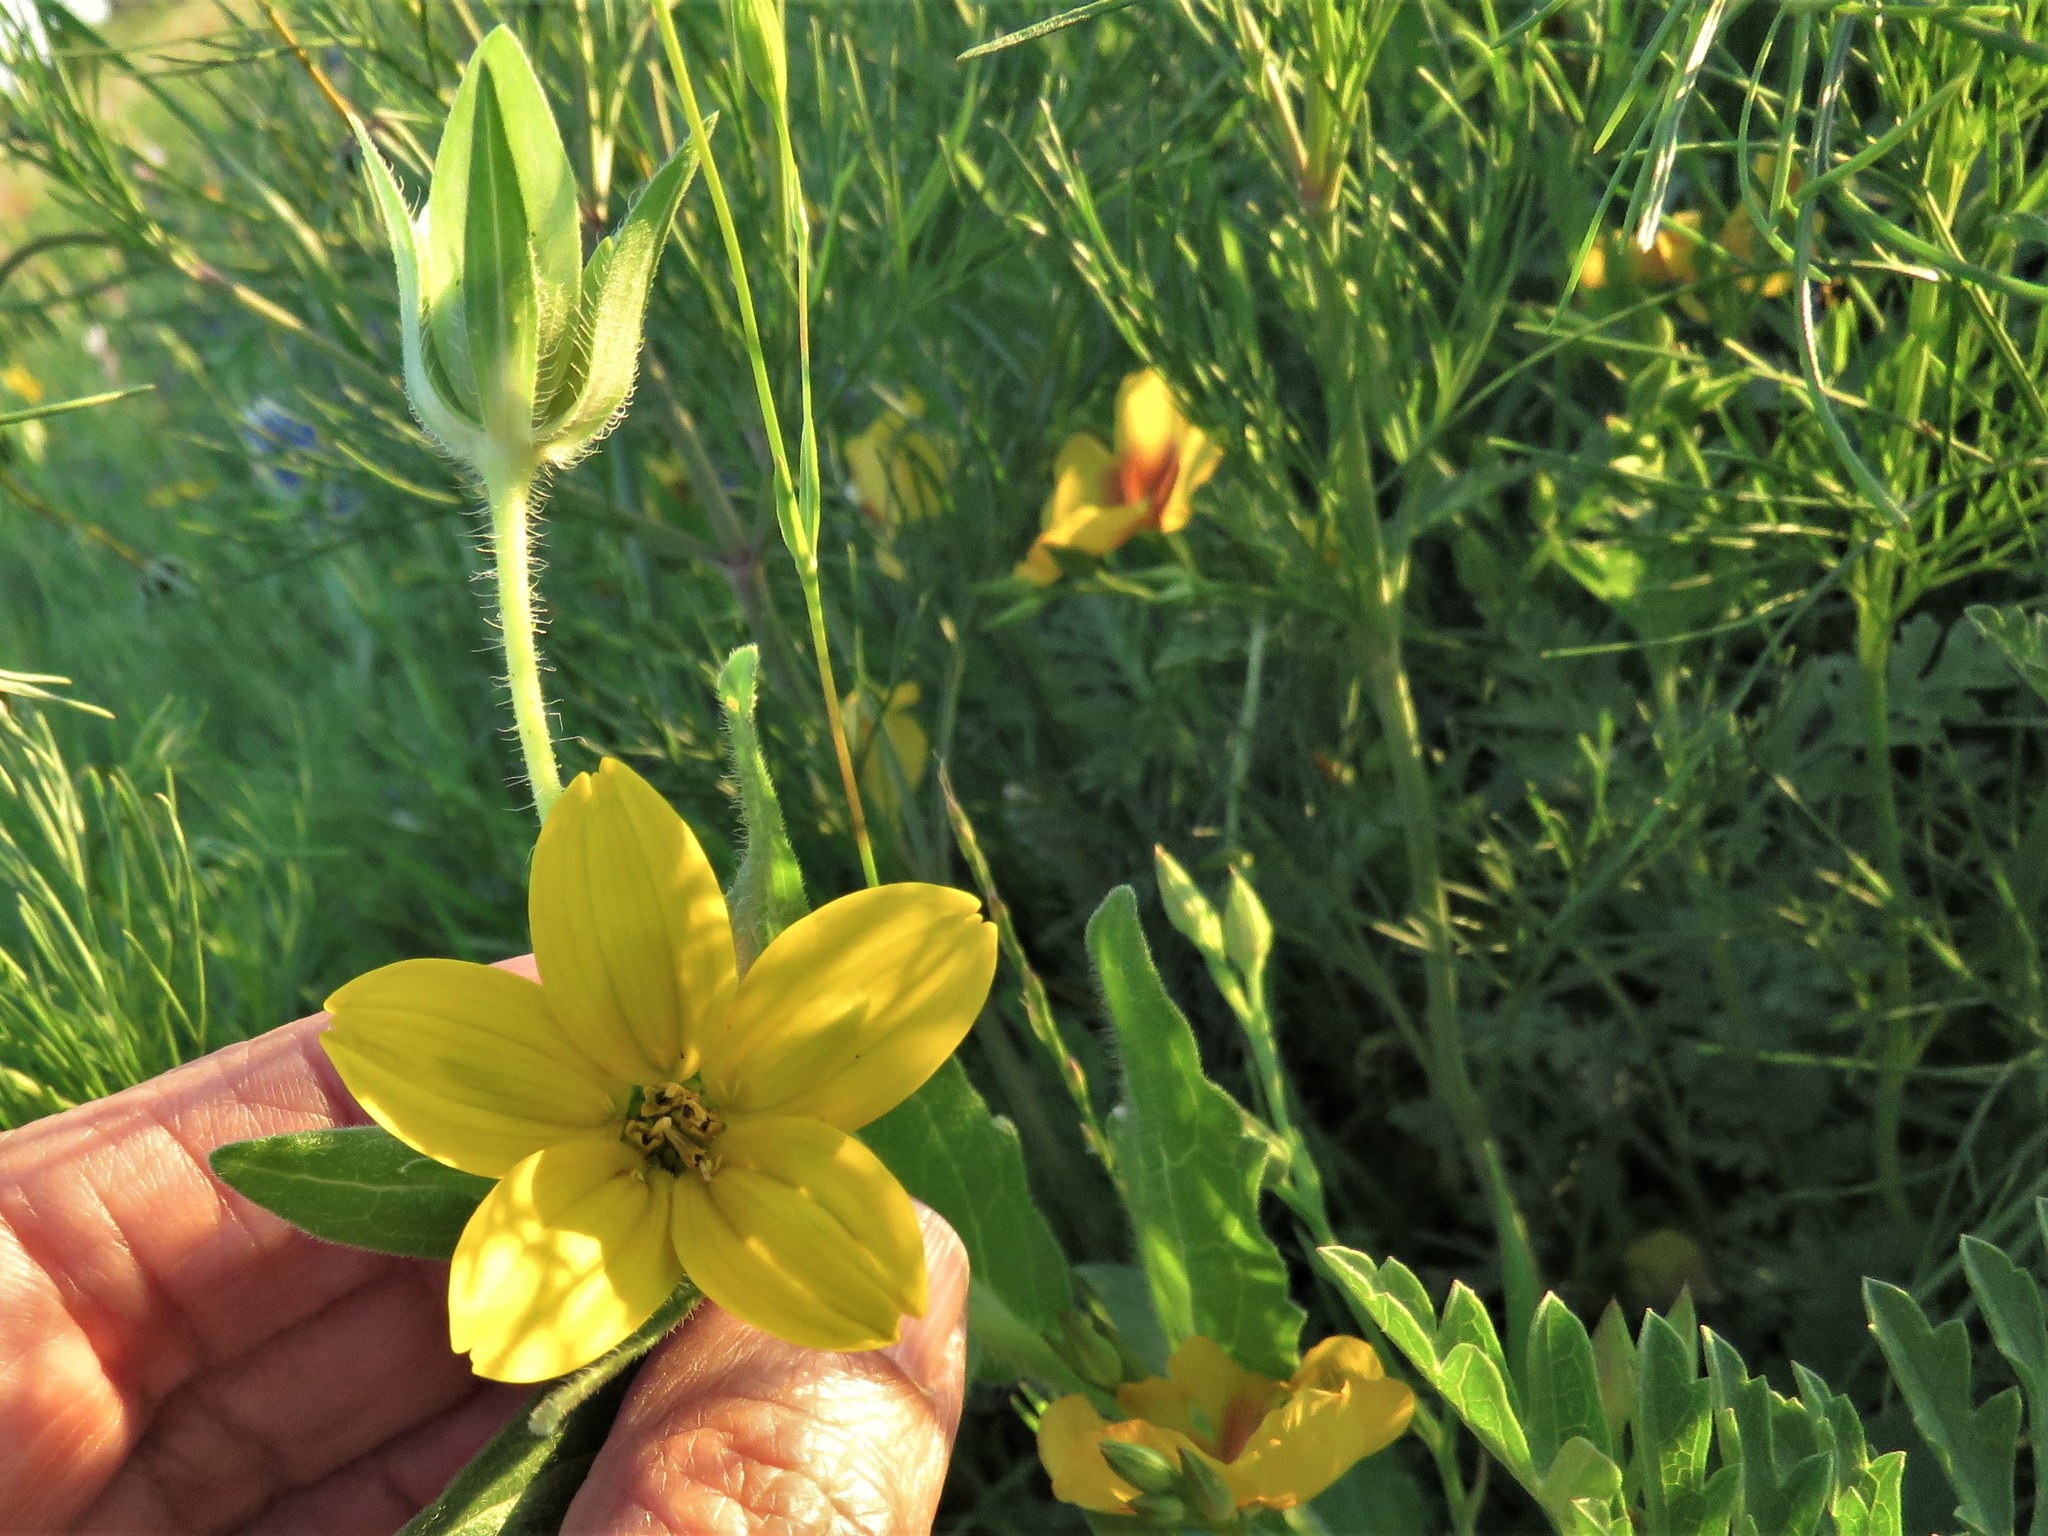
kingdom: Plantae
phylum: Tracheophyta
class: Magnoliopsida
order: Asterales
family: Asteraceae
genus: Lindheimera
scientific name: Lindheimera texana
